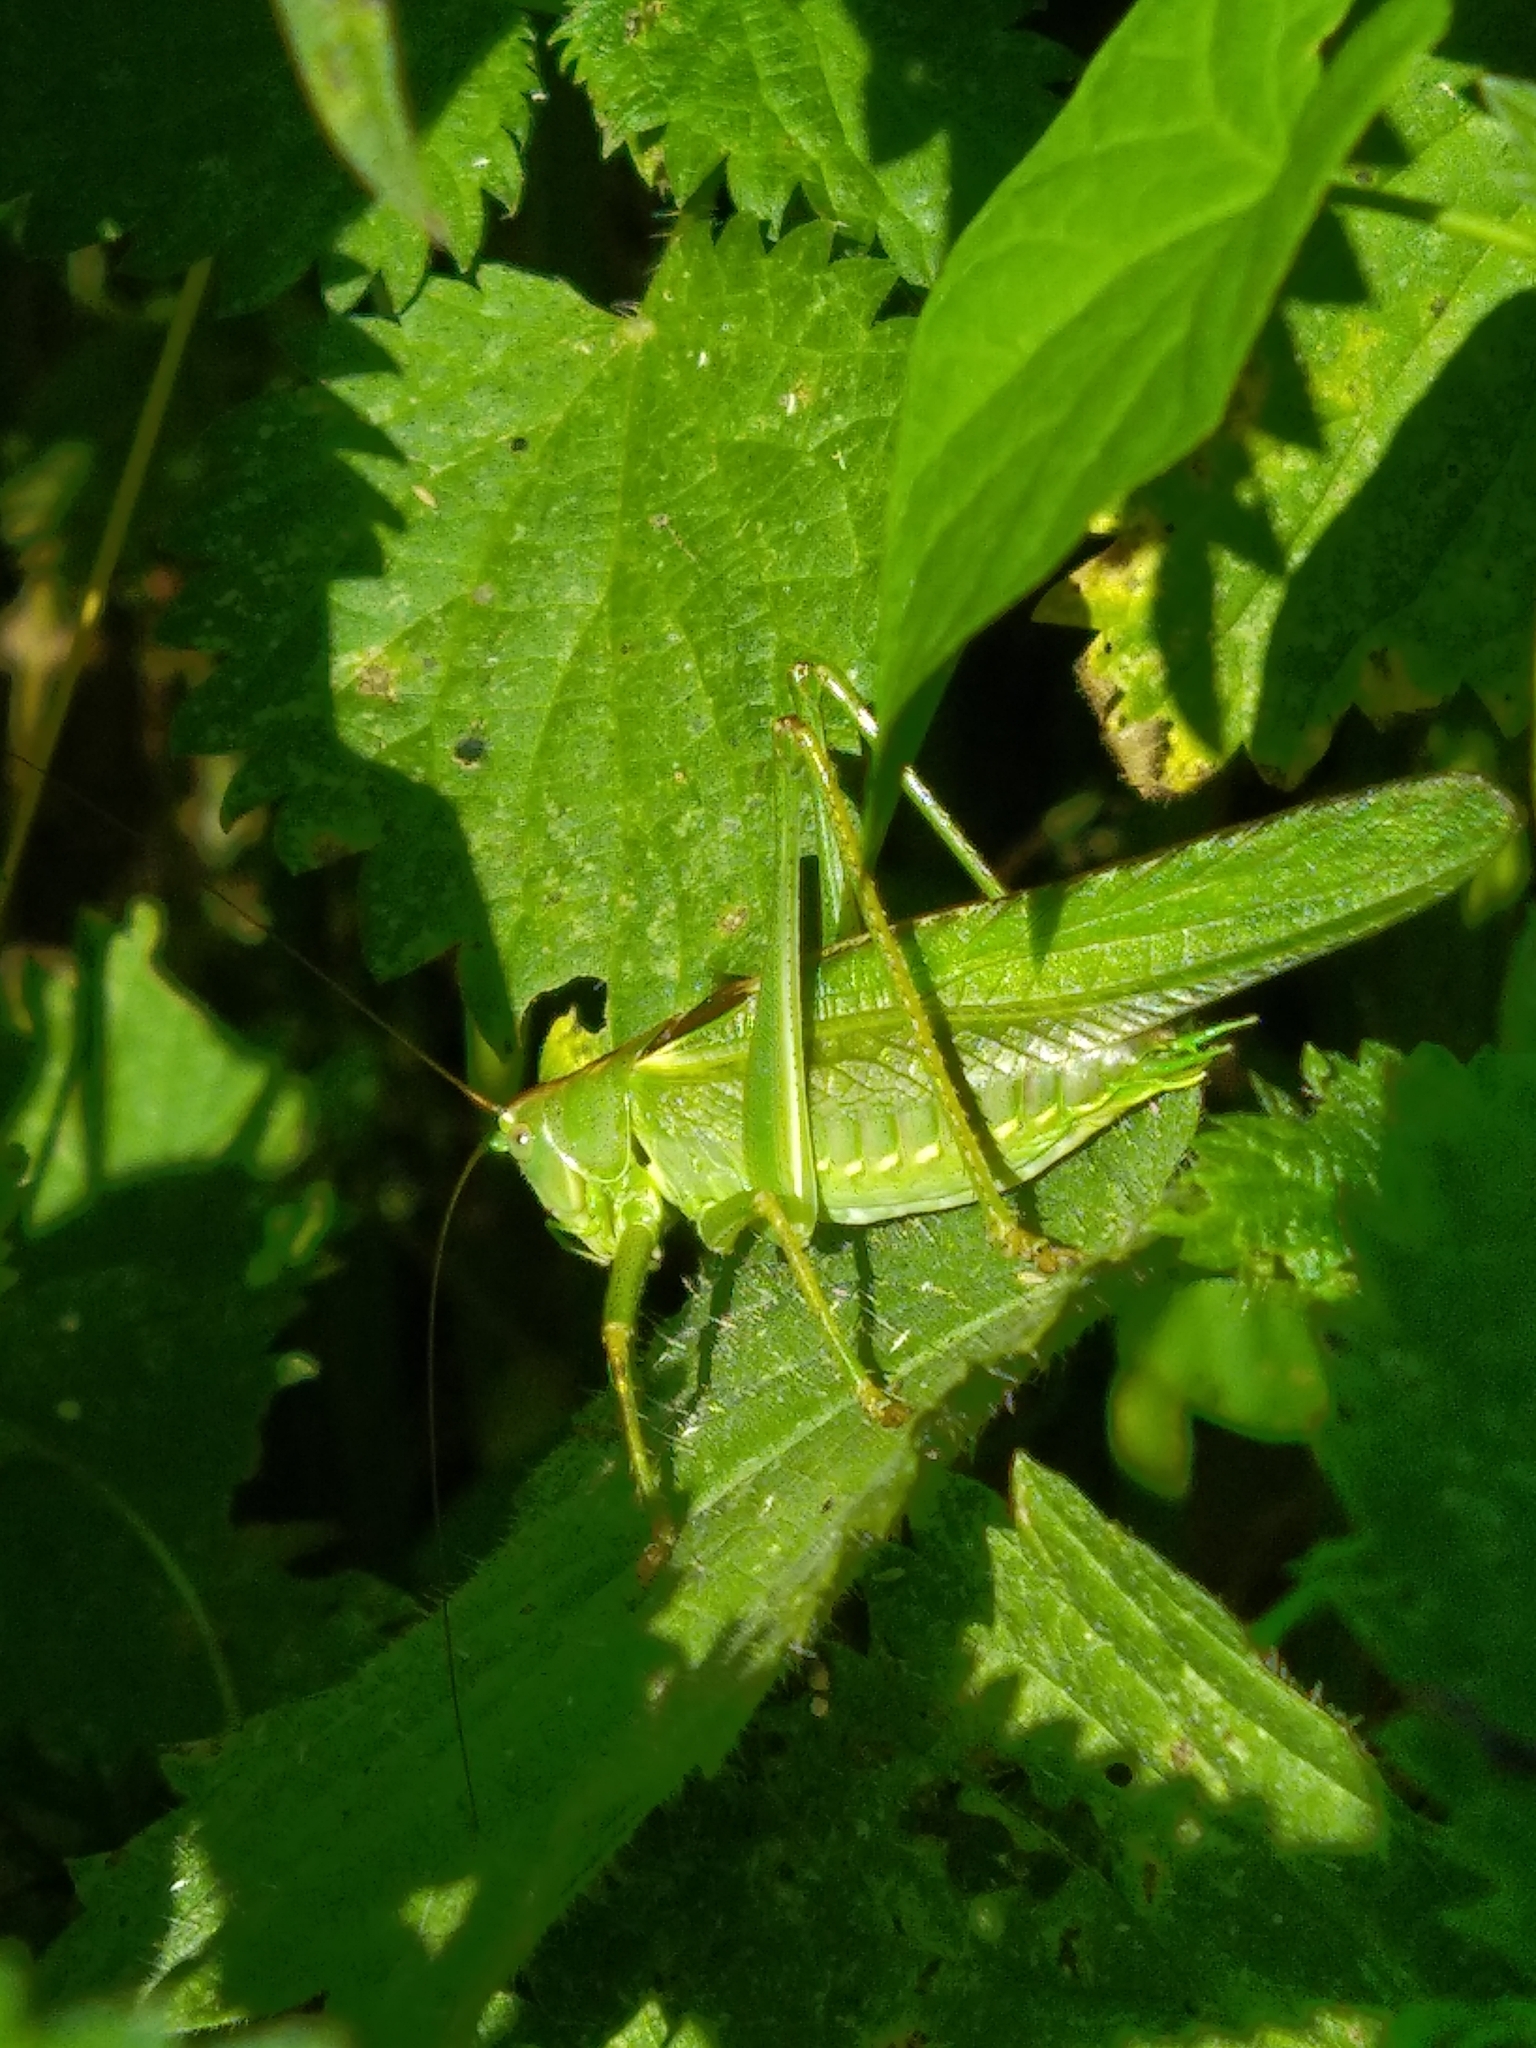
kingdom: Animalia
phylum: Arthropoda
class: Insecta
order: Orthoptera
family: Tettigoniidae
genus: Tettigonia
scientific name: Tettigonia viridissima
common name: Great green bush-cricket
